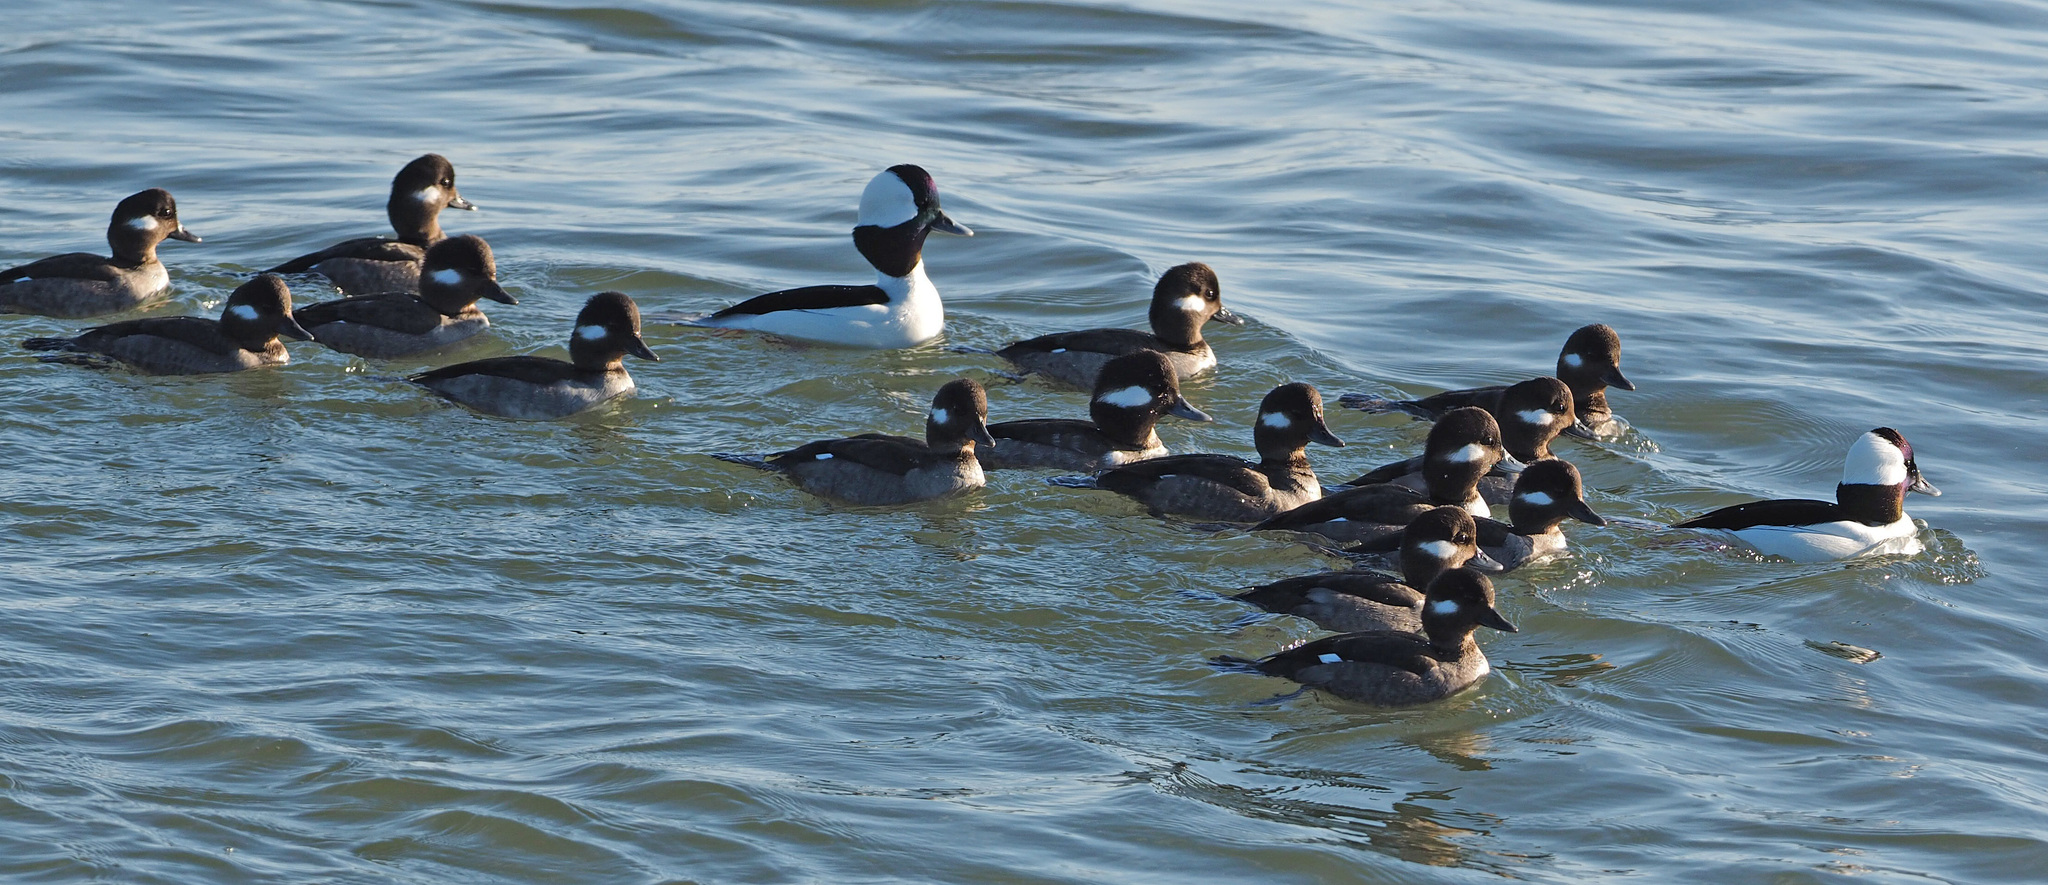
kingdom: Animalia
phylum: Chordata
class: Aves
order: Anseriformes
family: Anatidae
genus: Bucephala
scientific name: Bucephala albeola
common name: Bufflehead
